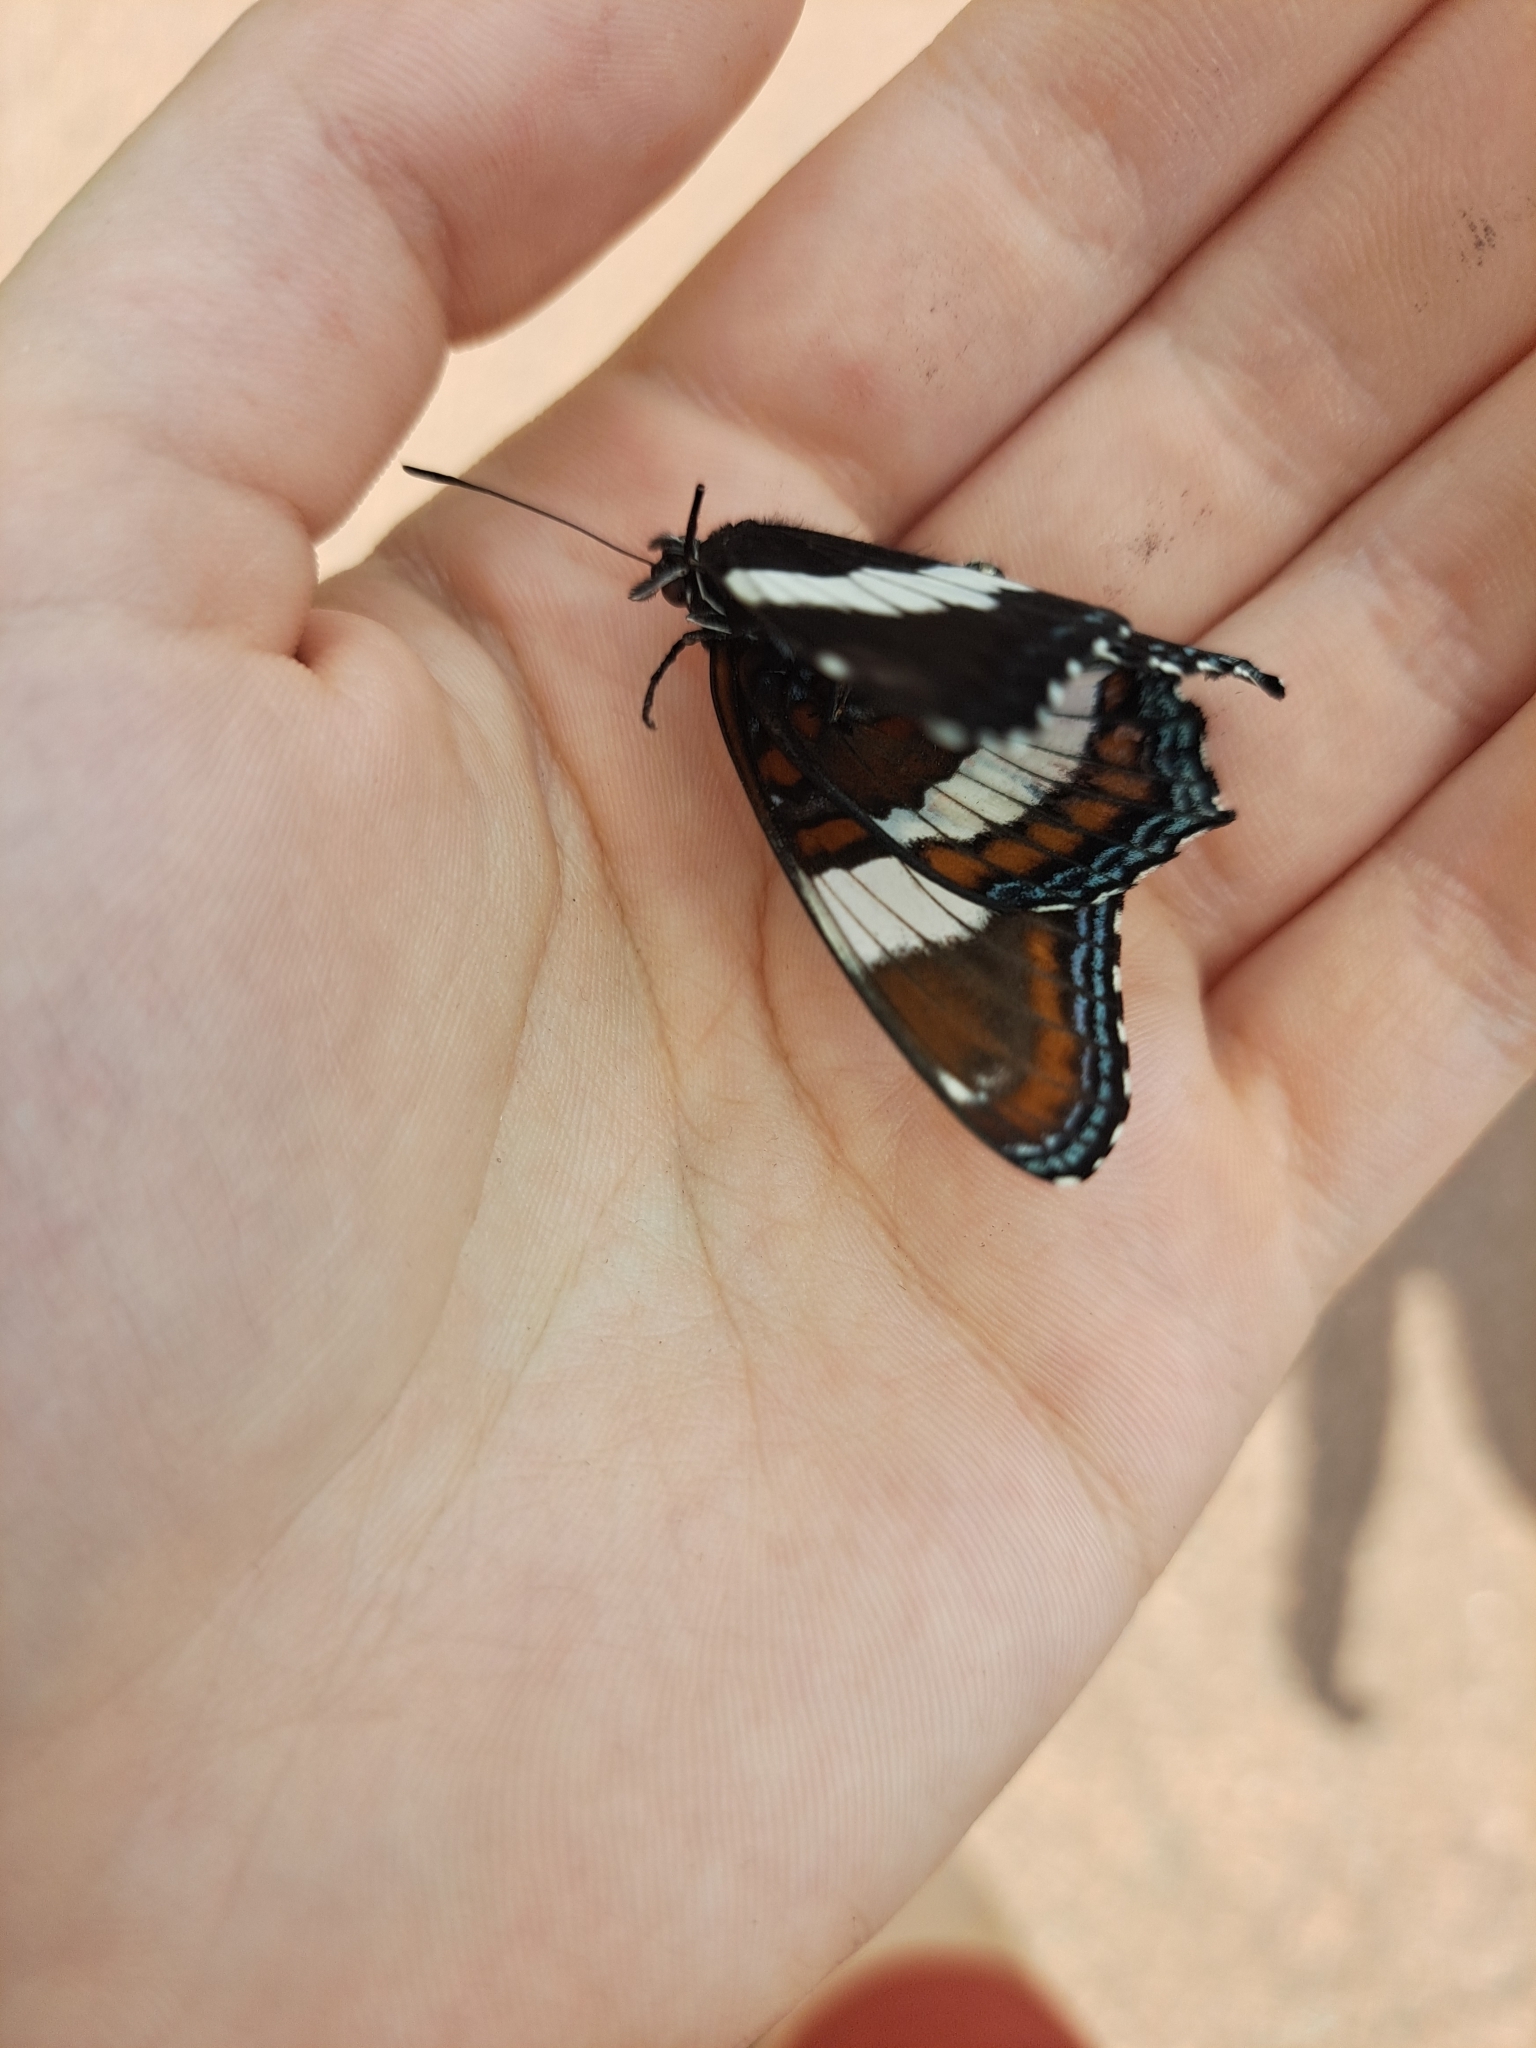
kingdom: Animalia
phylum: Arthropoda
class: Insecta
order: Lepidoptera
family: Nymphalidae
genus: Limenitis
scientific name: Limenitis arthemis
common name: Red-spotted admiral
